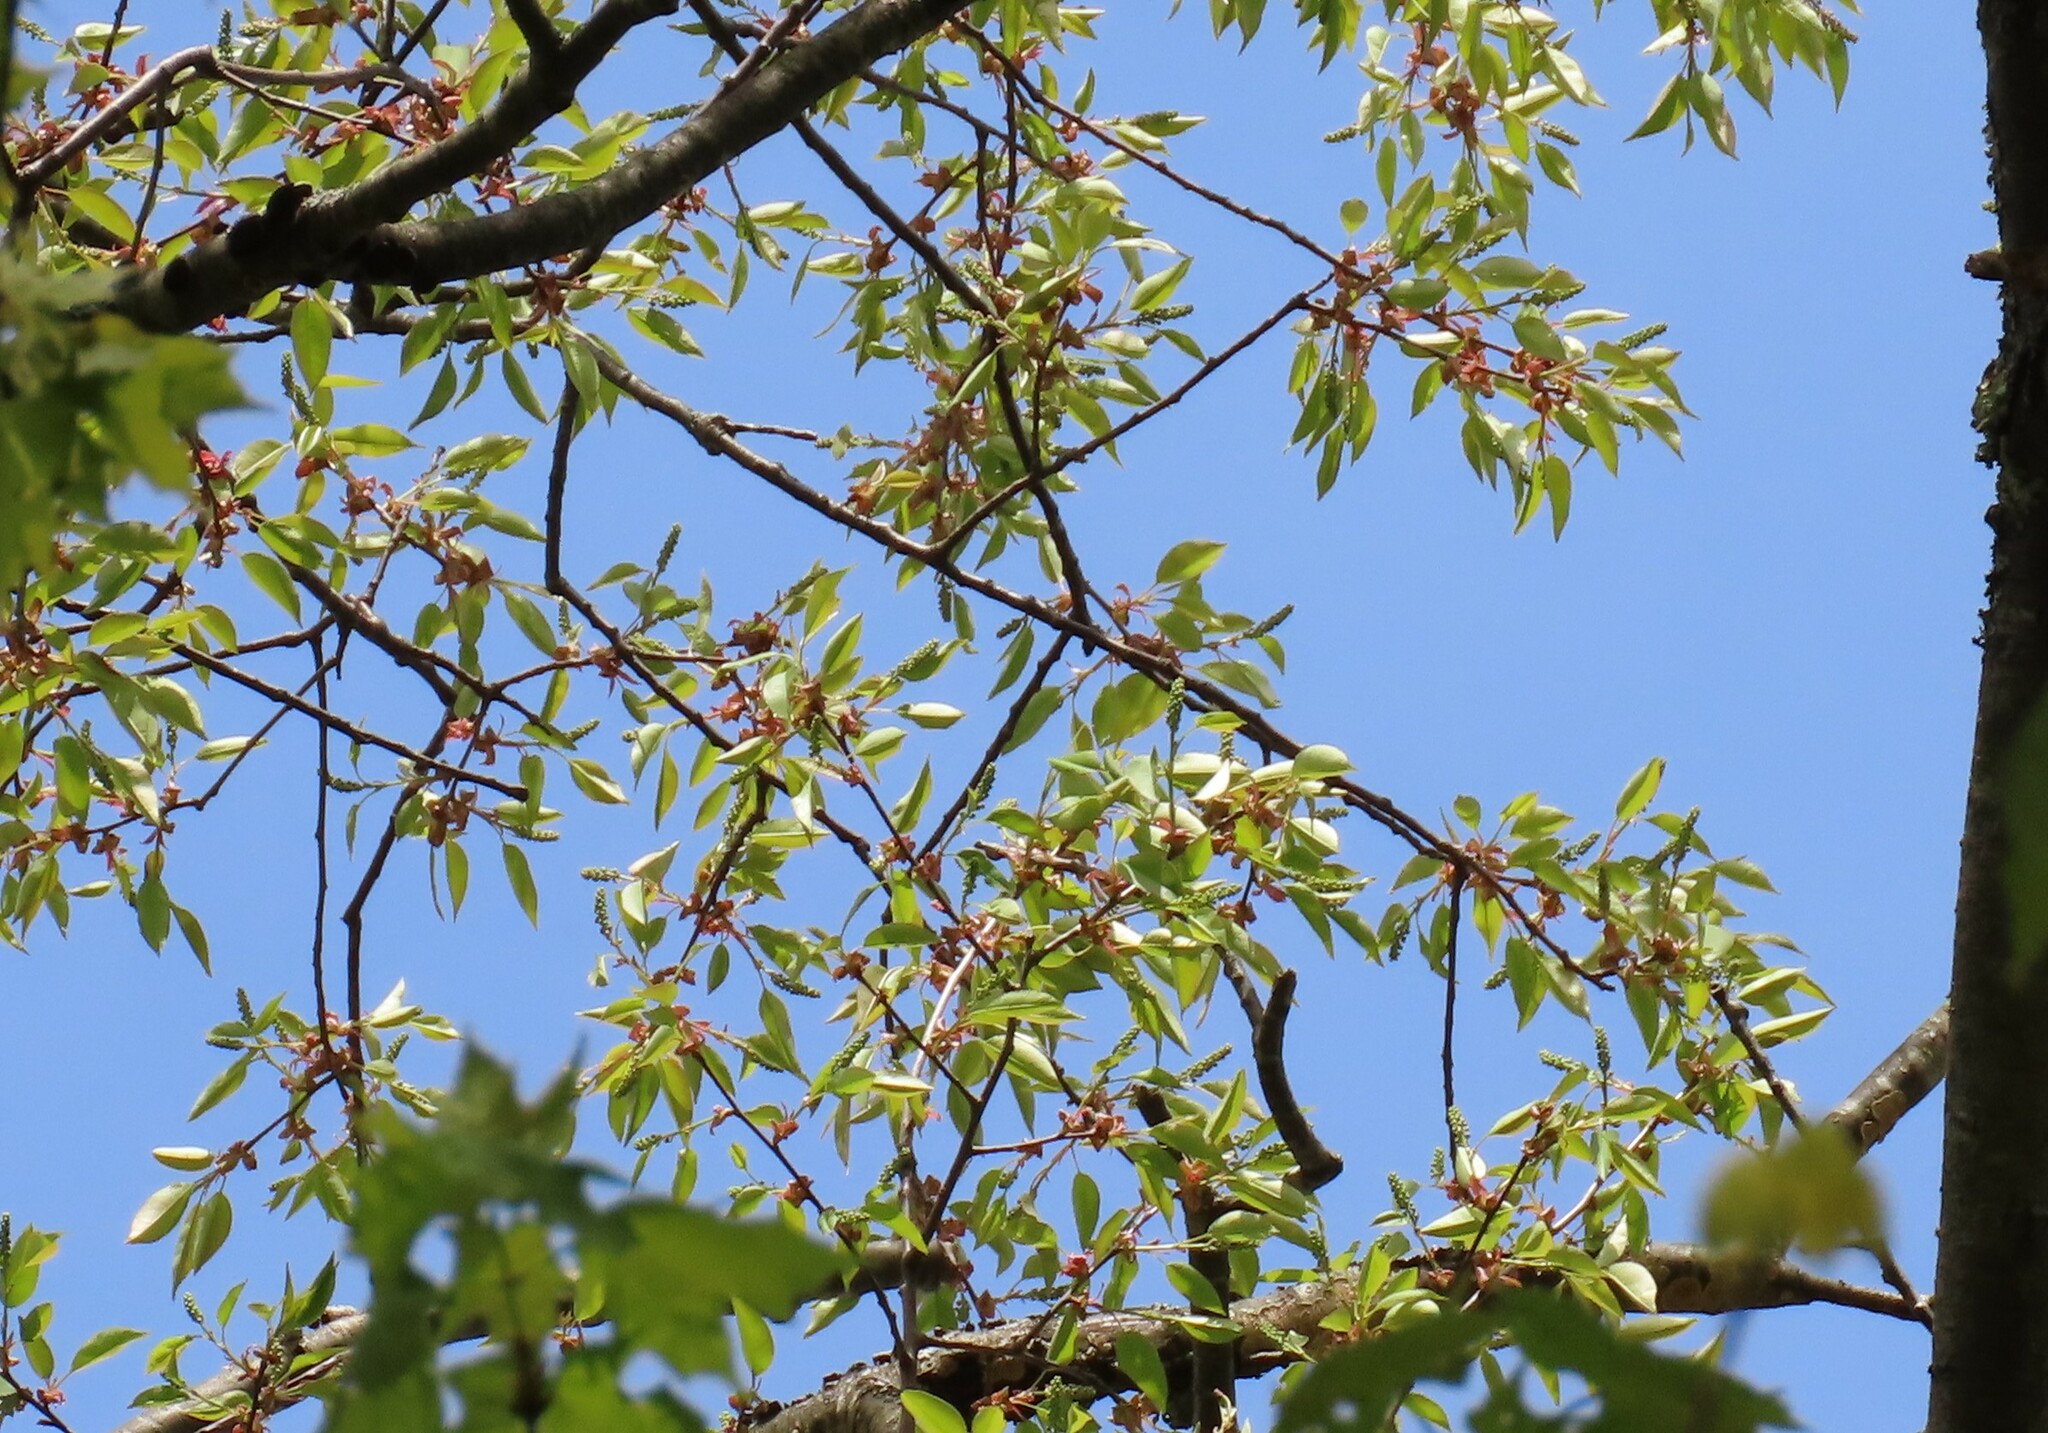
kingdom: Plantae
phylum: Tracheophyta
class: Magnoliopsida
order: Rosales
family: Rosaceae
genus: Prunus
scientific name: Prunus serotina
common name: Black cherry
